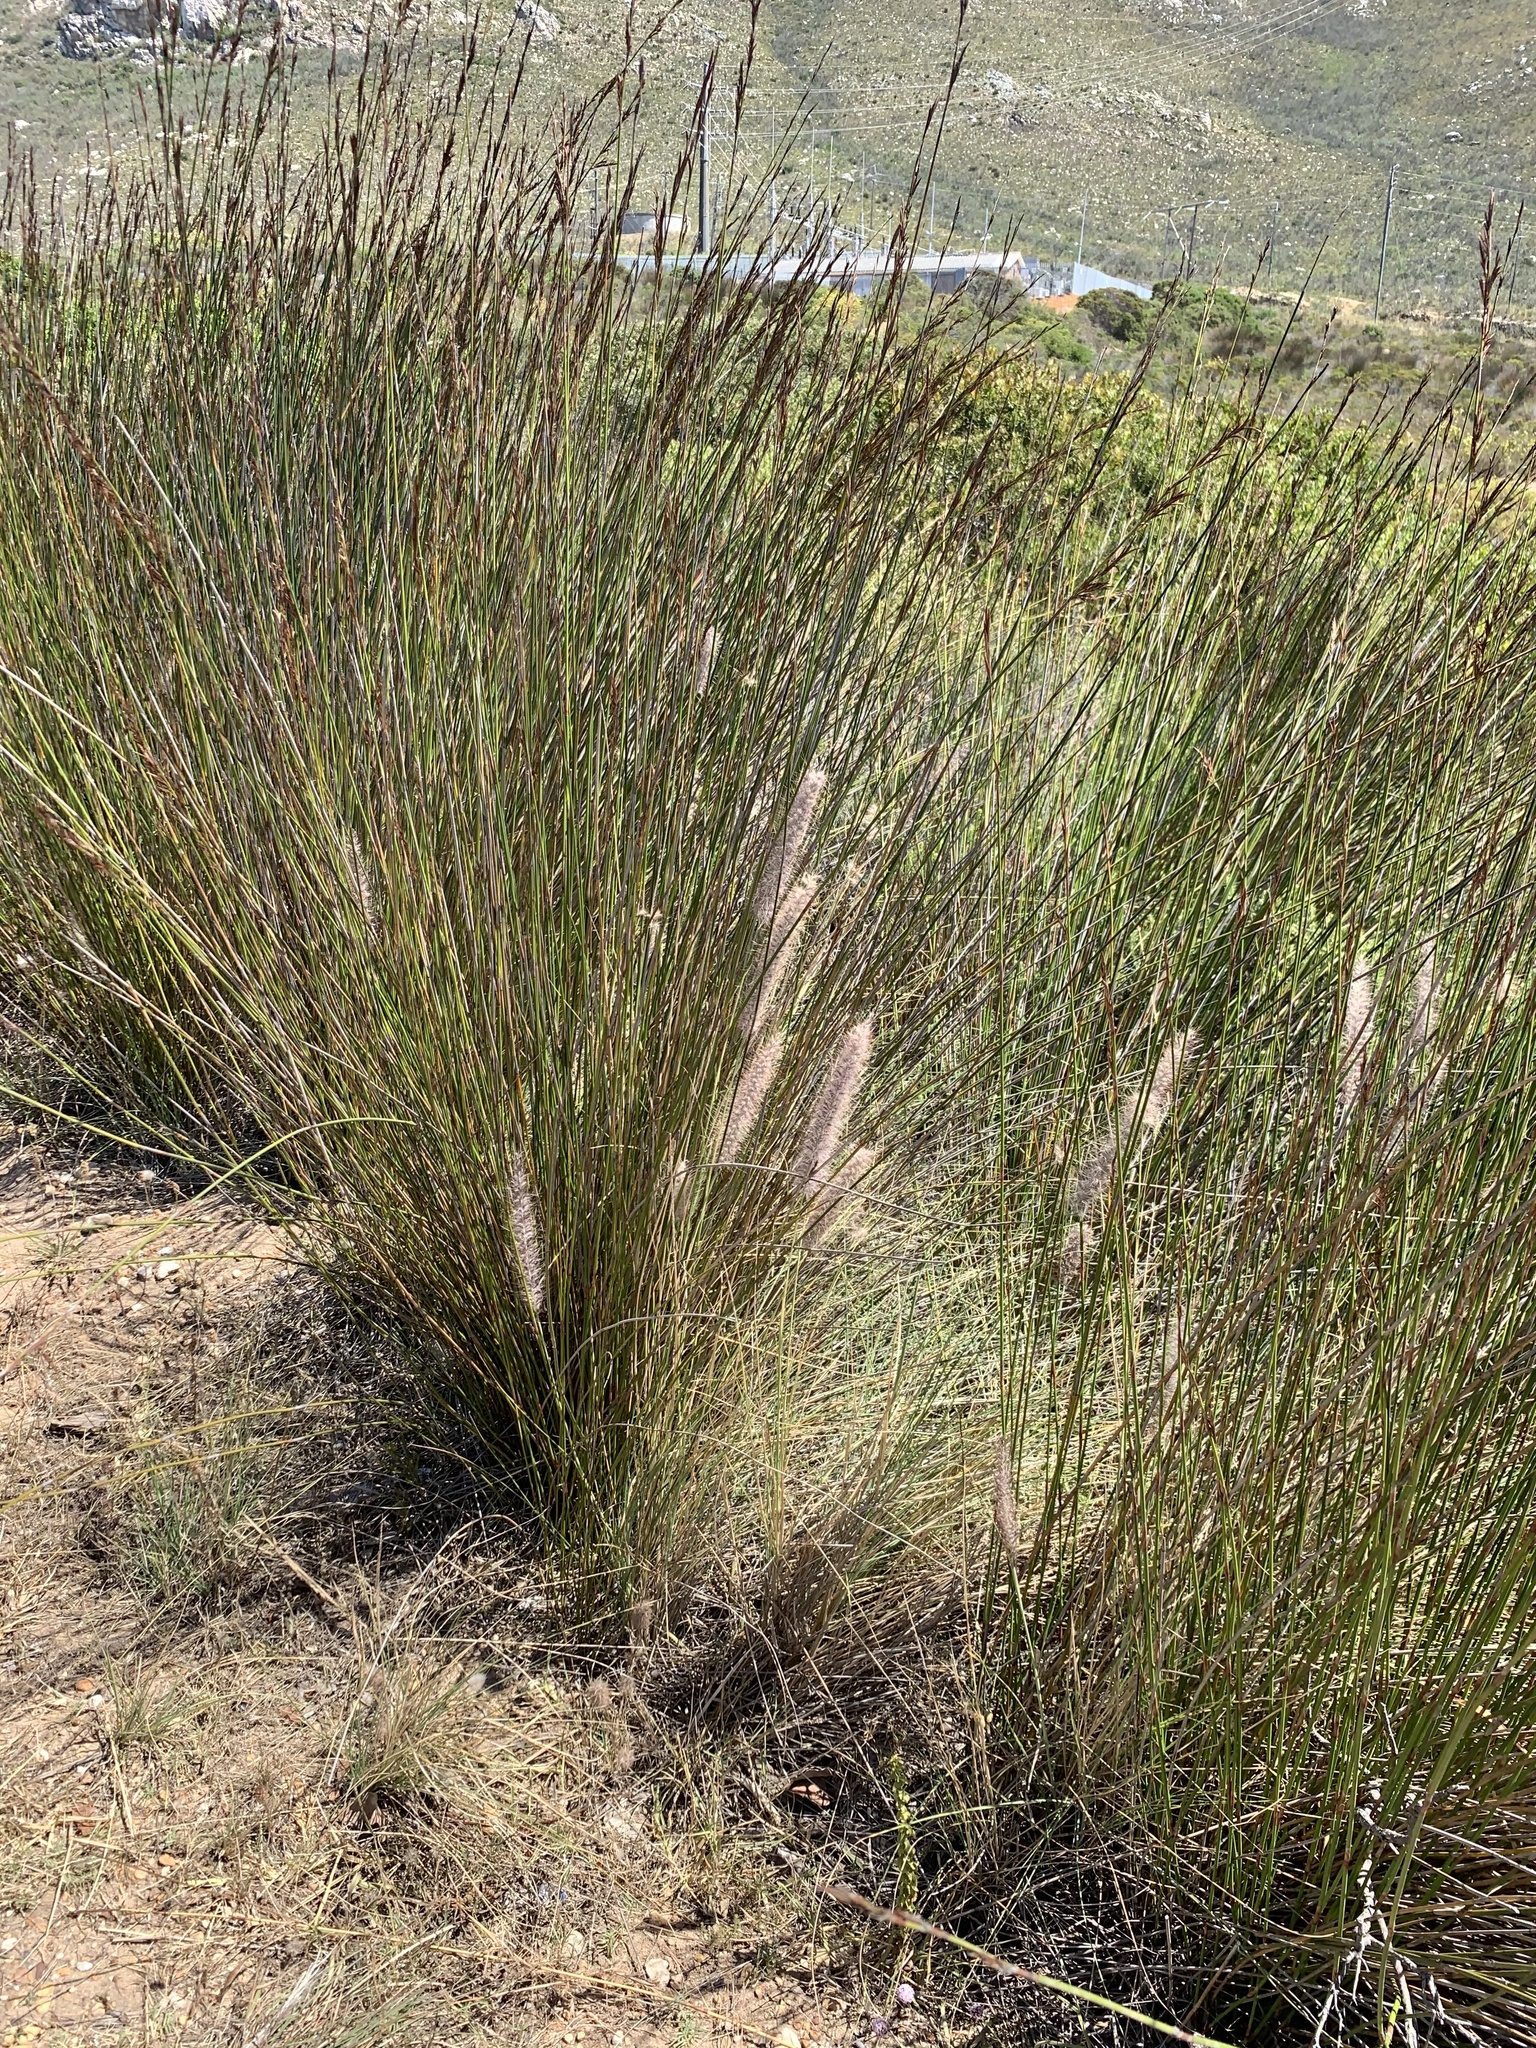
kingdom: Plantae
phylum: Tracheophyta
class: Liliopsida
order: Poales
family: Poaceae
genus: Cenchrus
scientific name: Cenchrus setaceus
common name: Crimson fountaingrass
